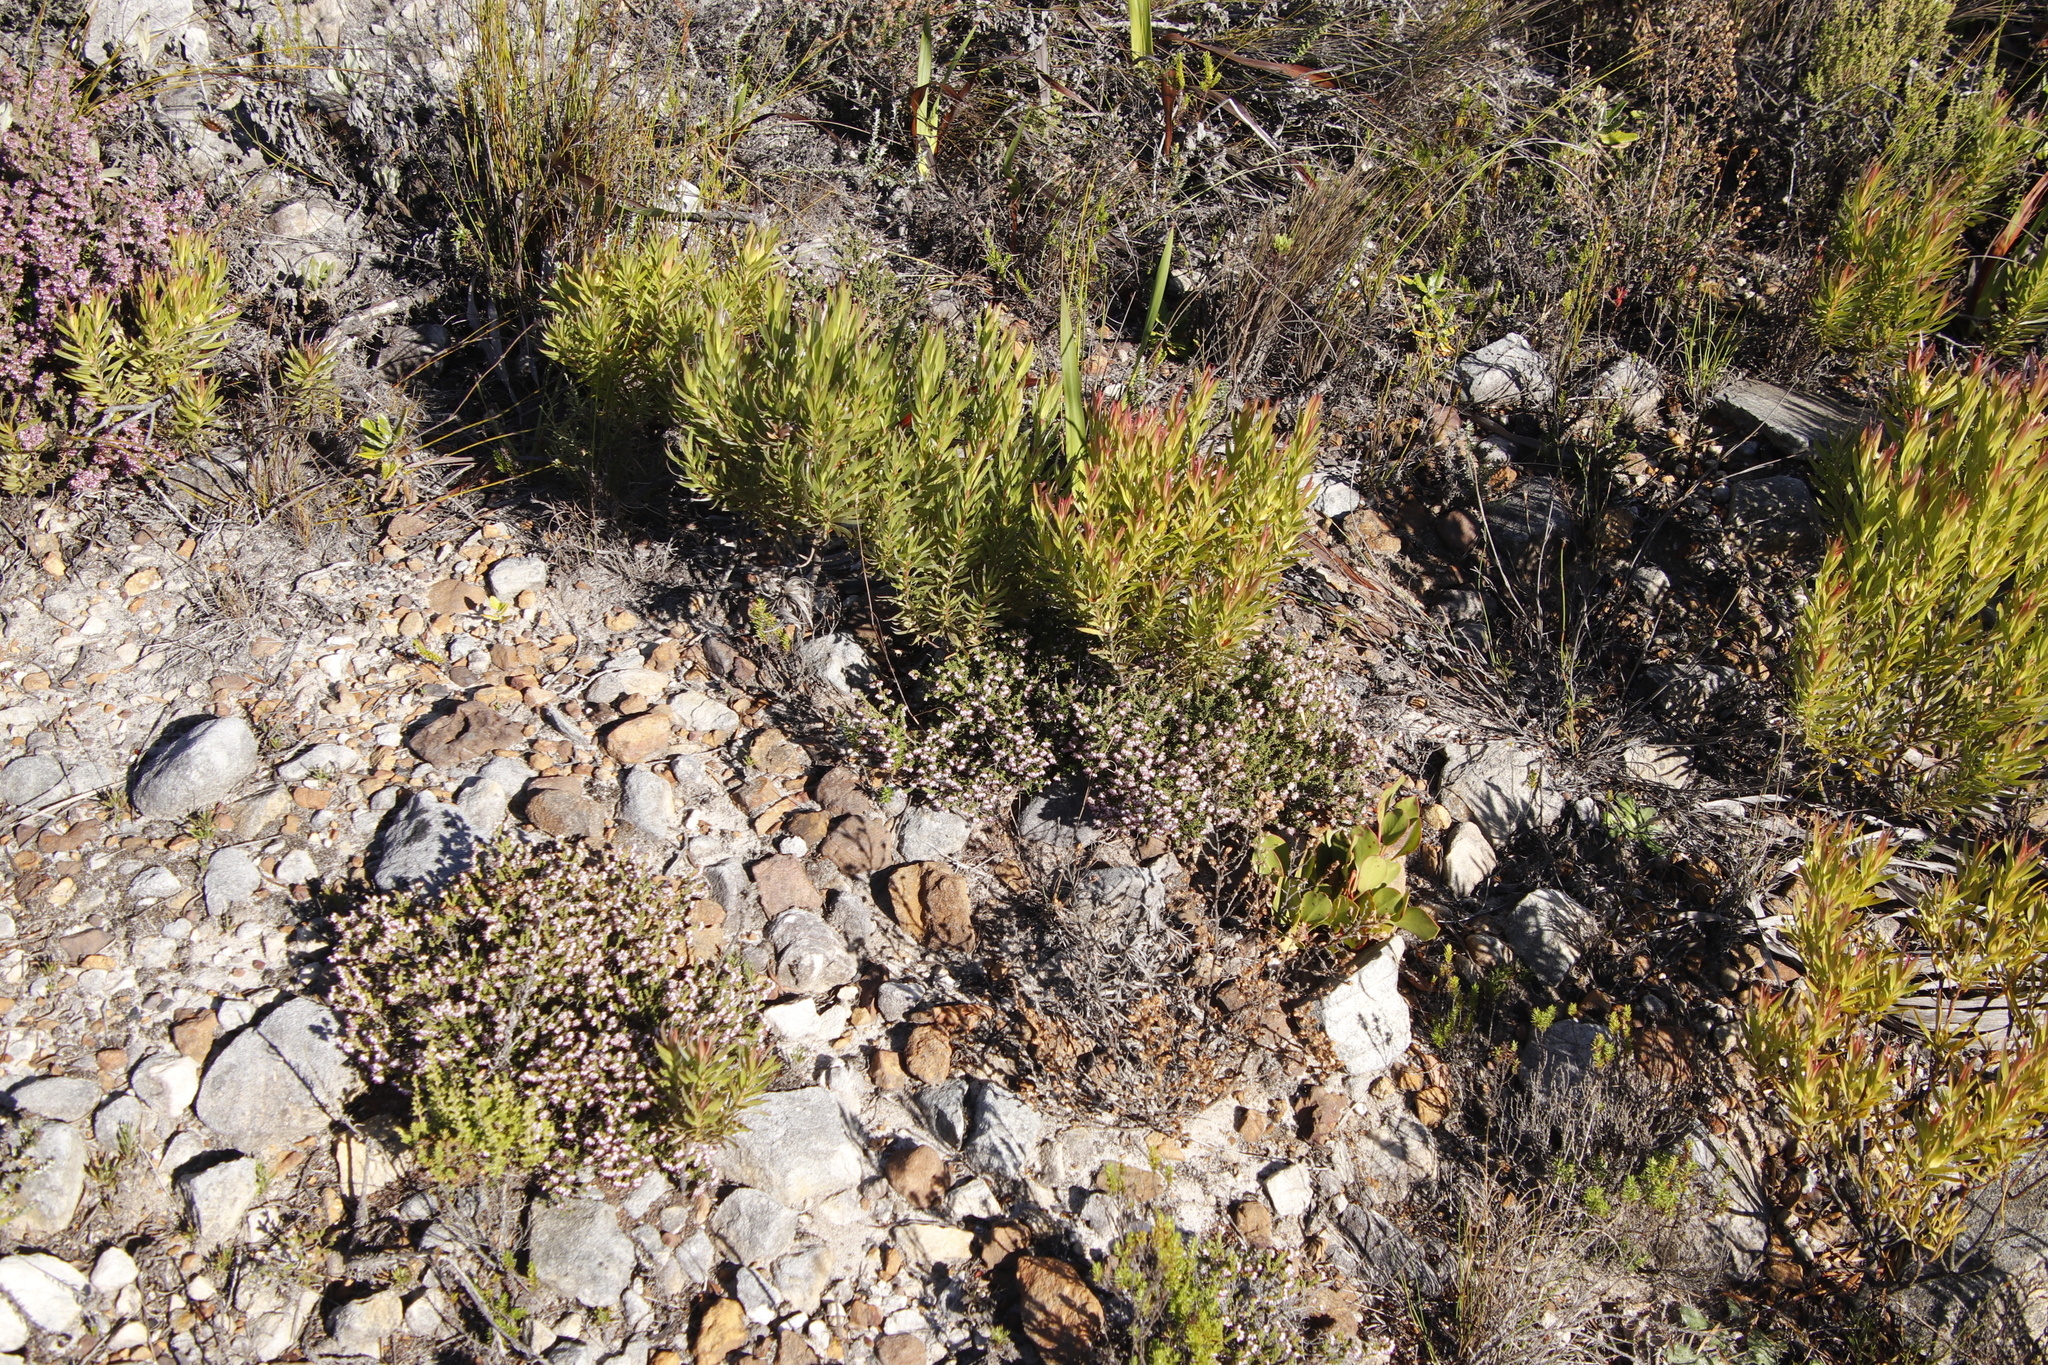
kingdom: Plantae
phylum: Tracheophyta
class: Magnoliopsida
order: Ericales
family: Ericaceae
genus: Erica
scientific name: Erica ericoides
